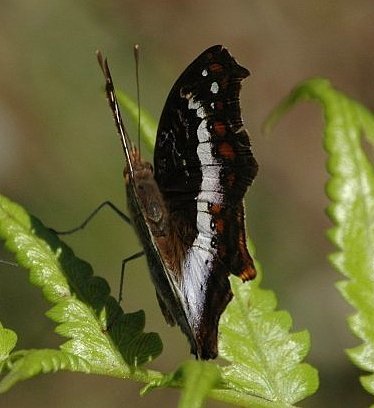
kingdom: Animalia
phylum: Arthropoda
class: Insecta
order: Lepidoptera
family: Nymphalidae
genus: Precis
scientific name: Precis andremiaja
